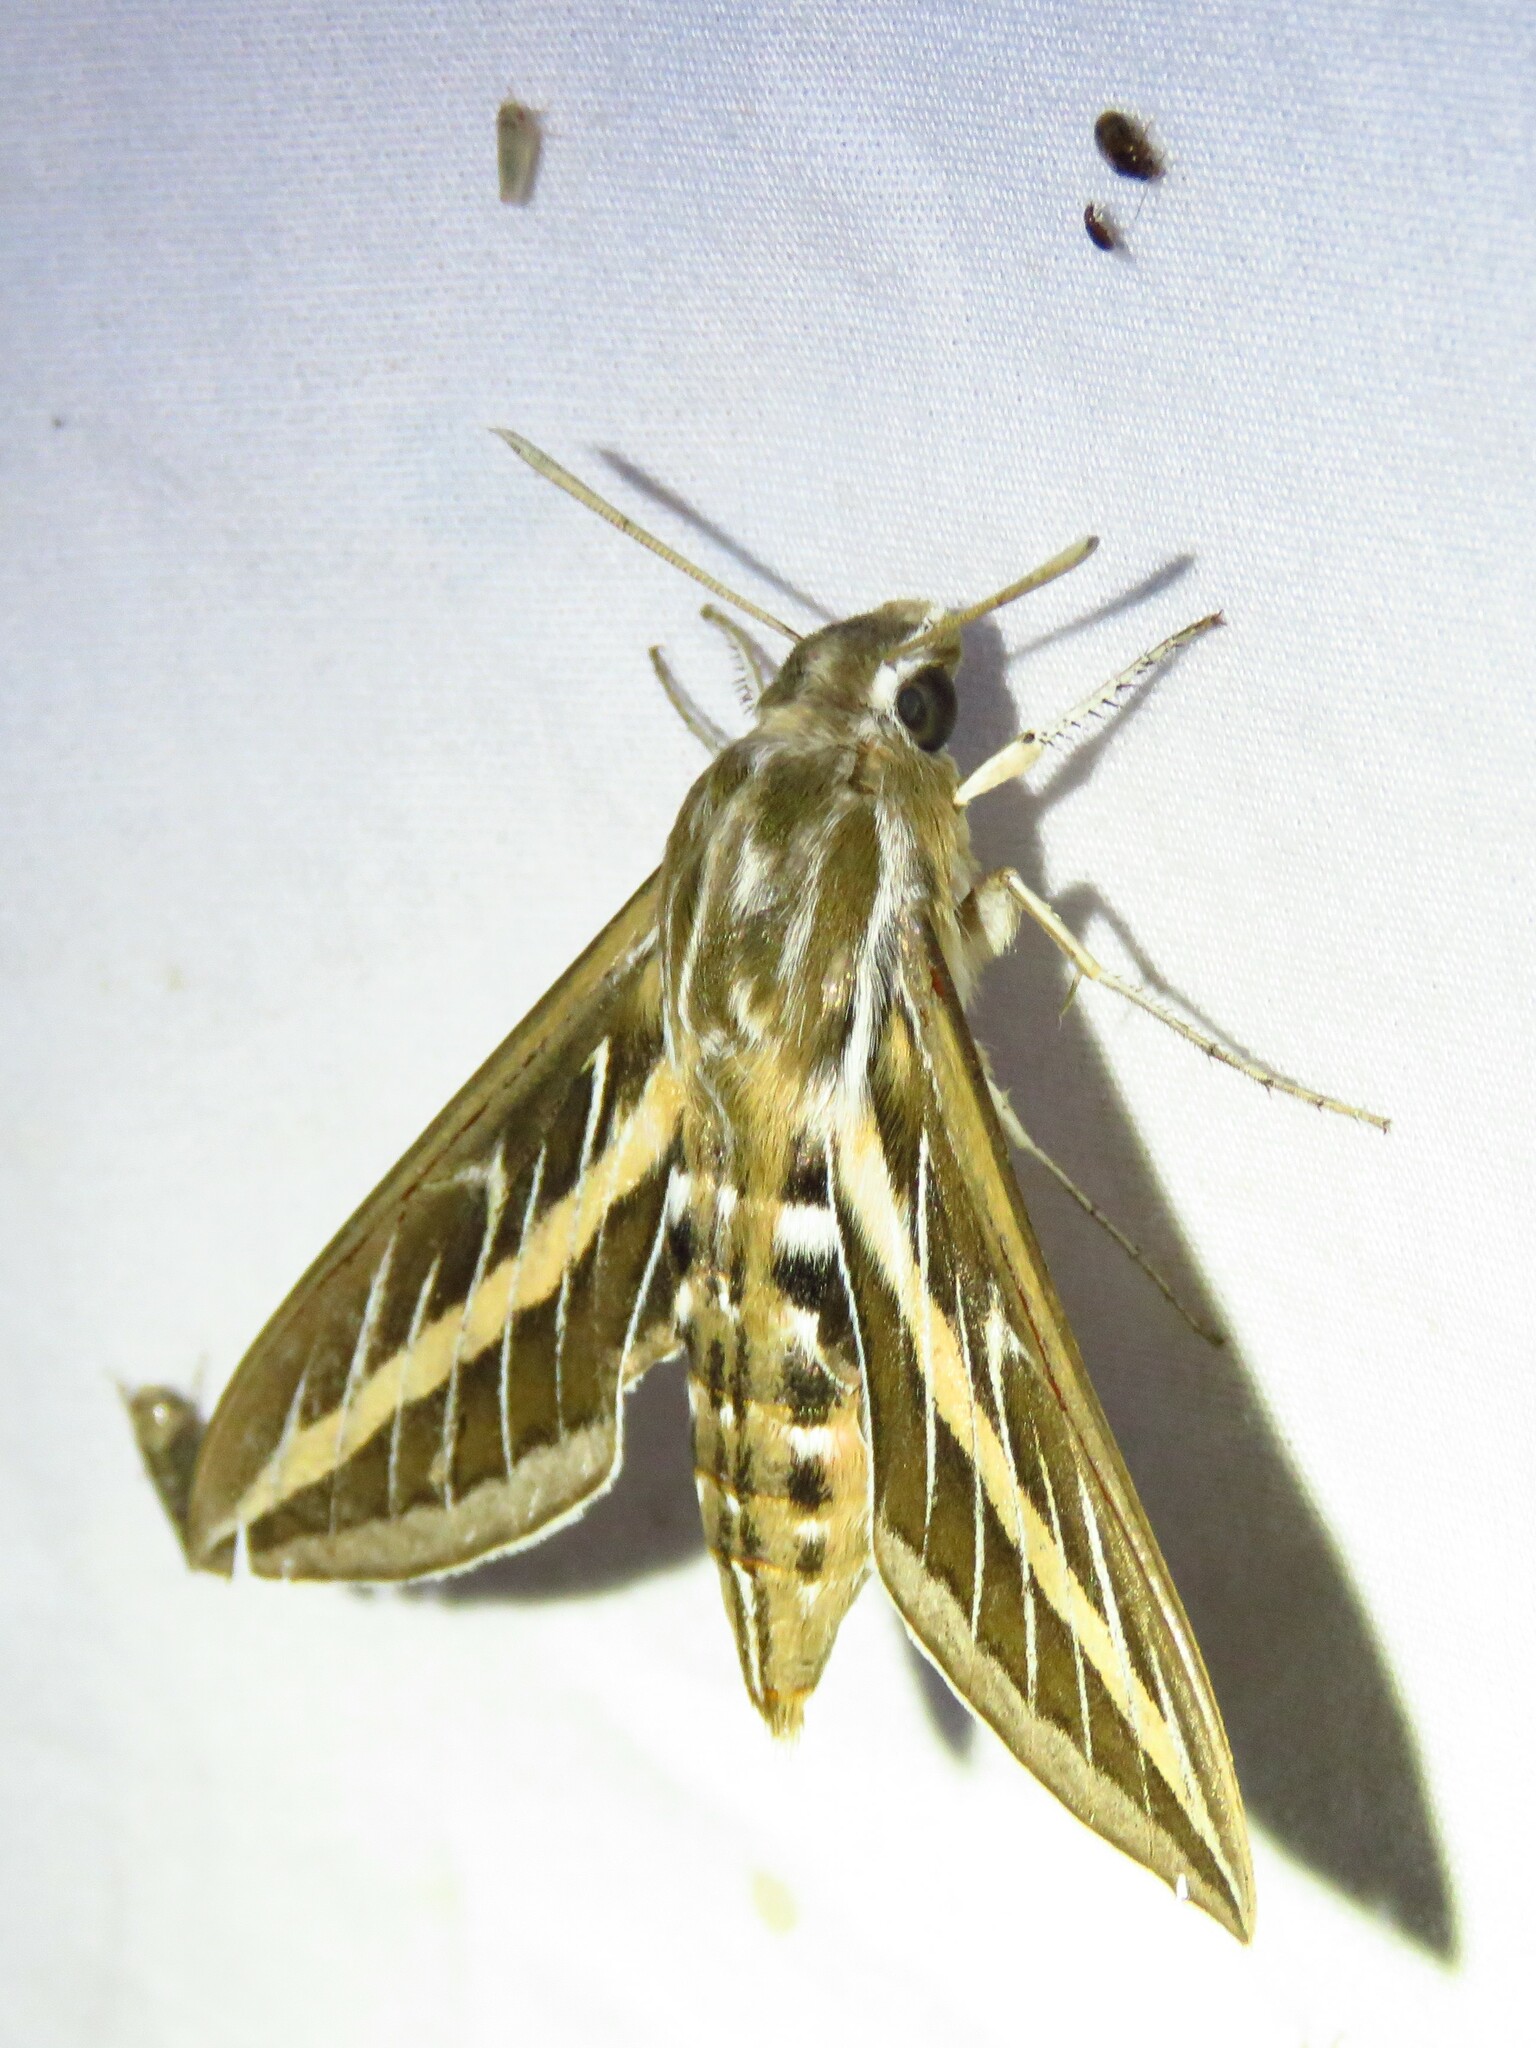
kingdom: Animalia
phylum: Arthropoda
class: Insecta
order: Lepidoptera
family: Sphingidae
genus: Hyles
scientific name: Hyles lineata
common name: White-lined sphinx
